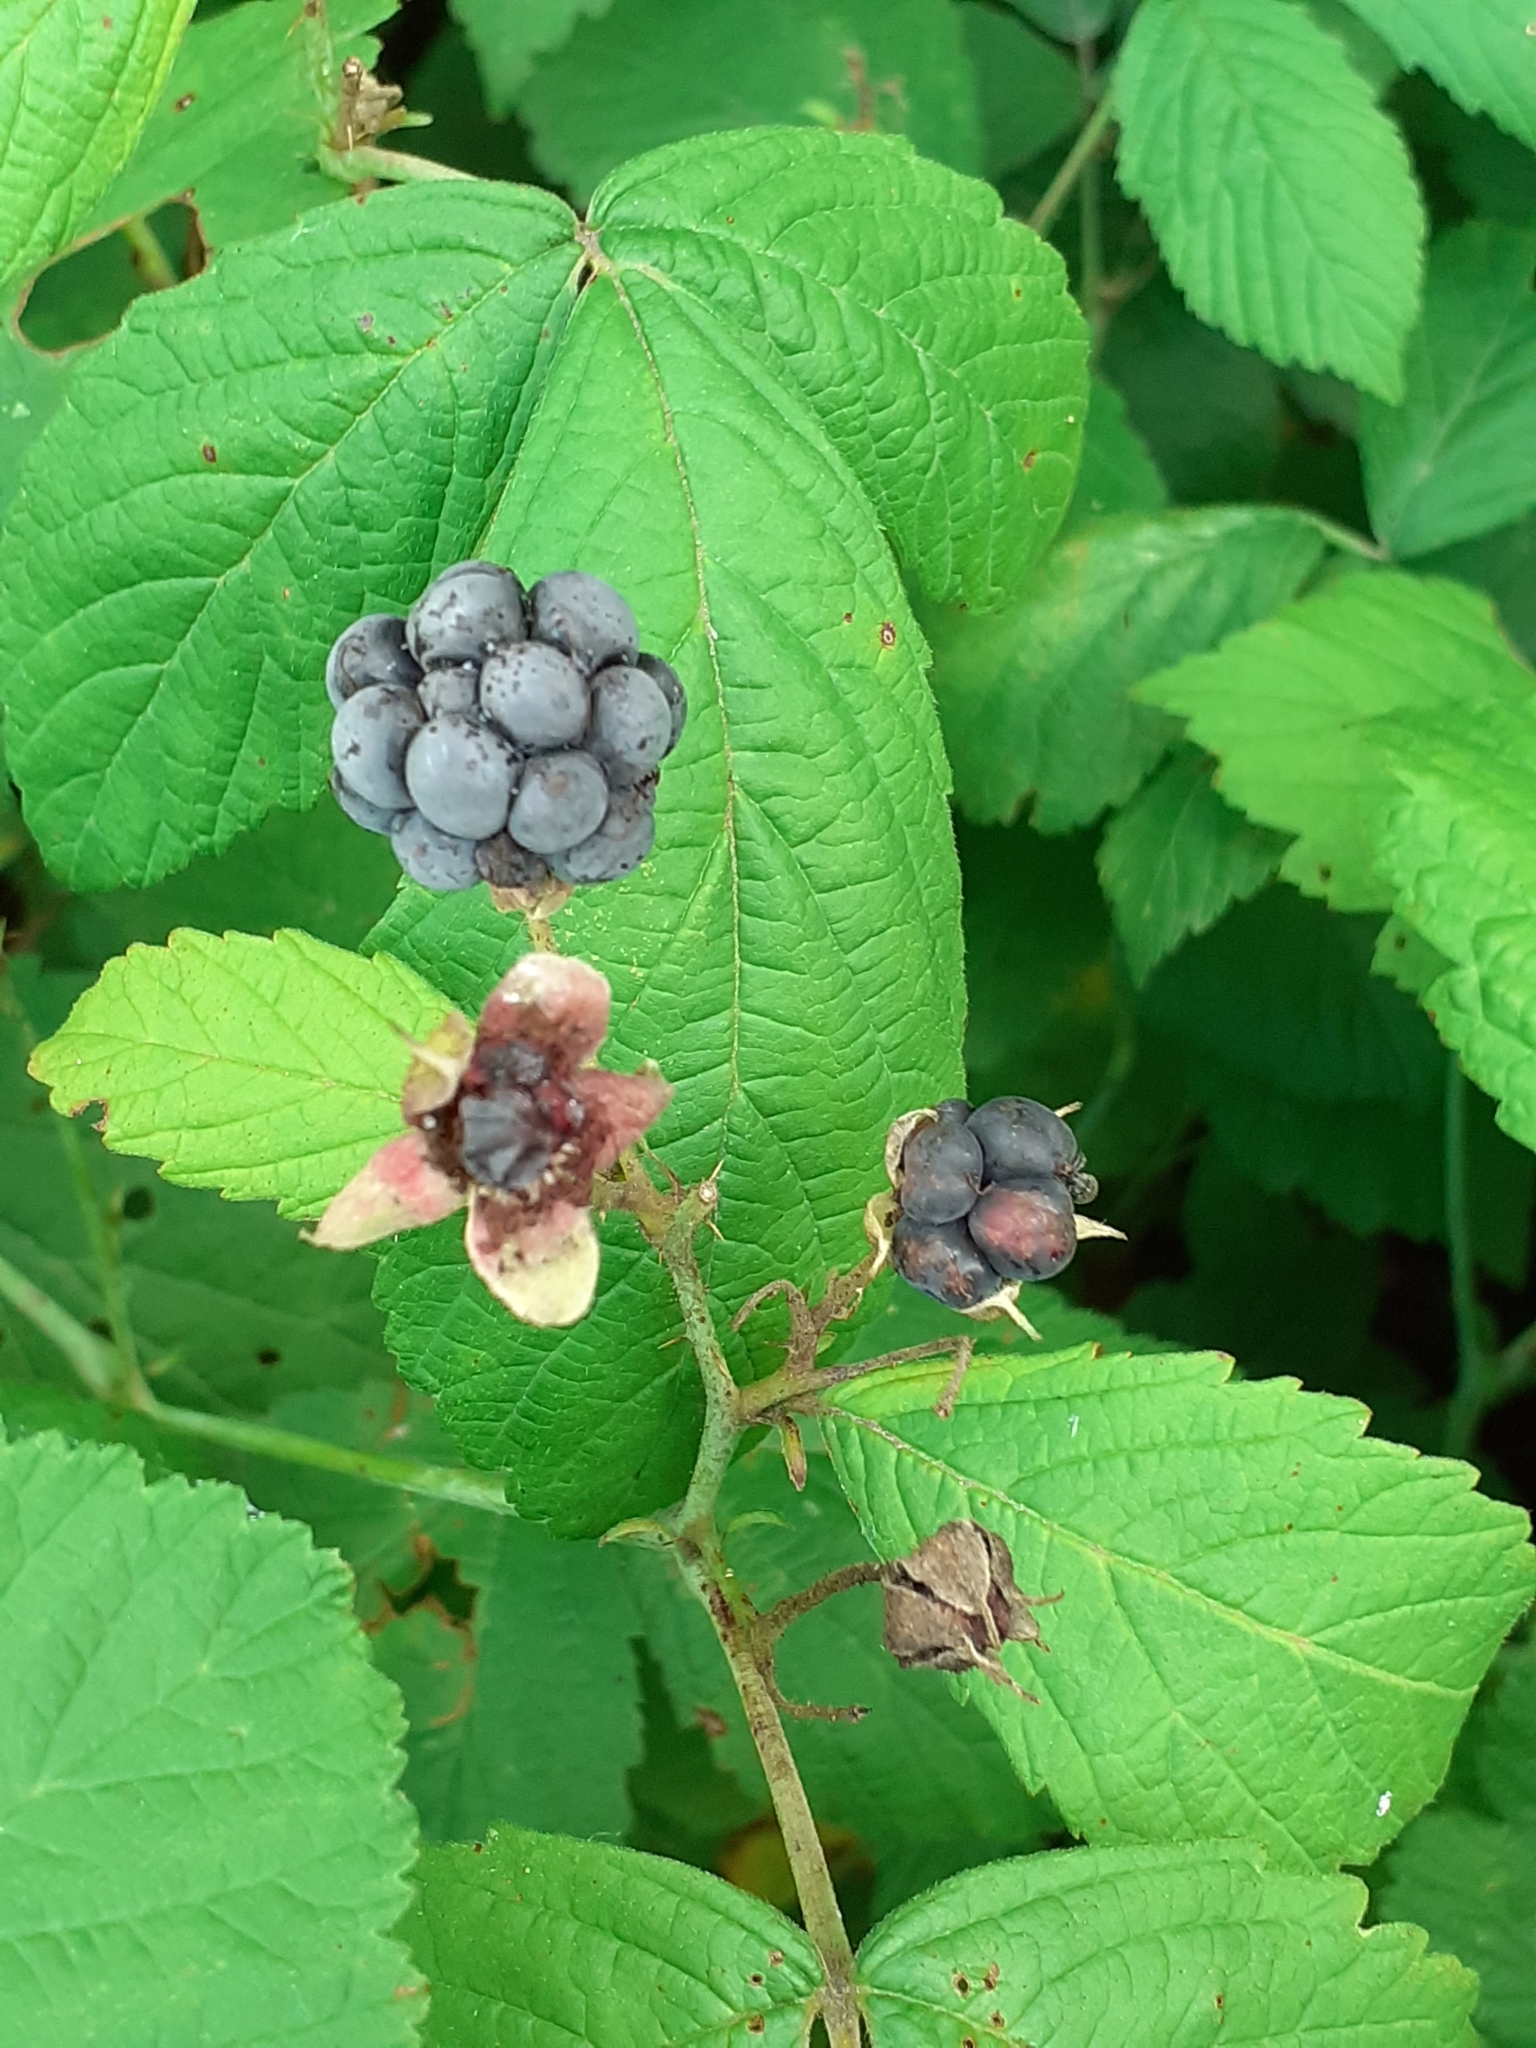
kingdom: Plantae
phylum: Tracheophyta
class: Magnoliopsida
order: Rosales
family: Rosaceae
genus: Rubus
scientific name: Rubus caesius
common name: Dewberry
